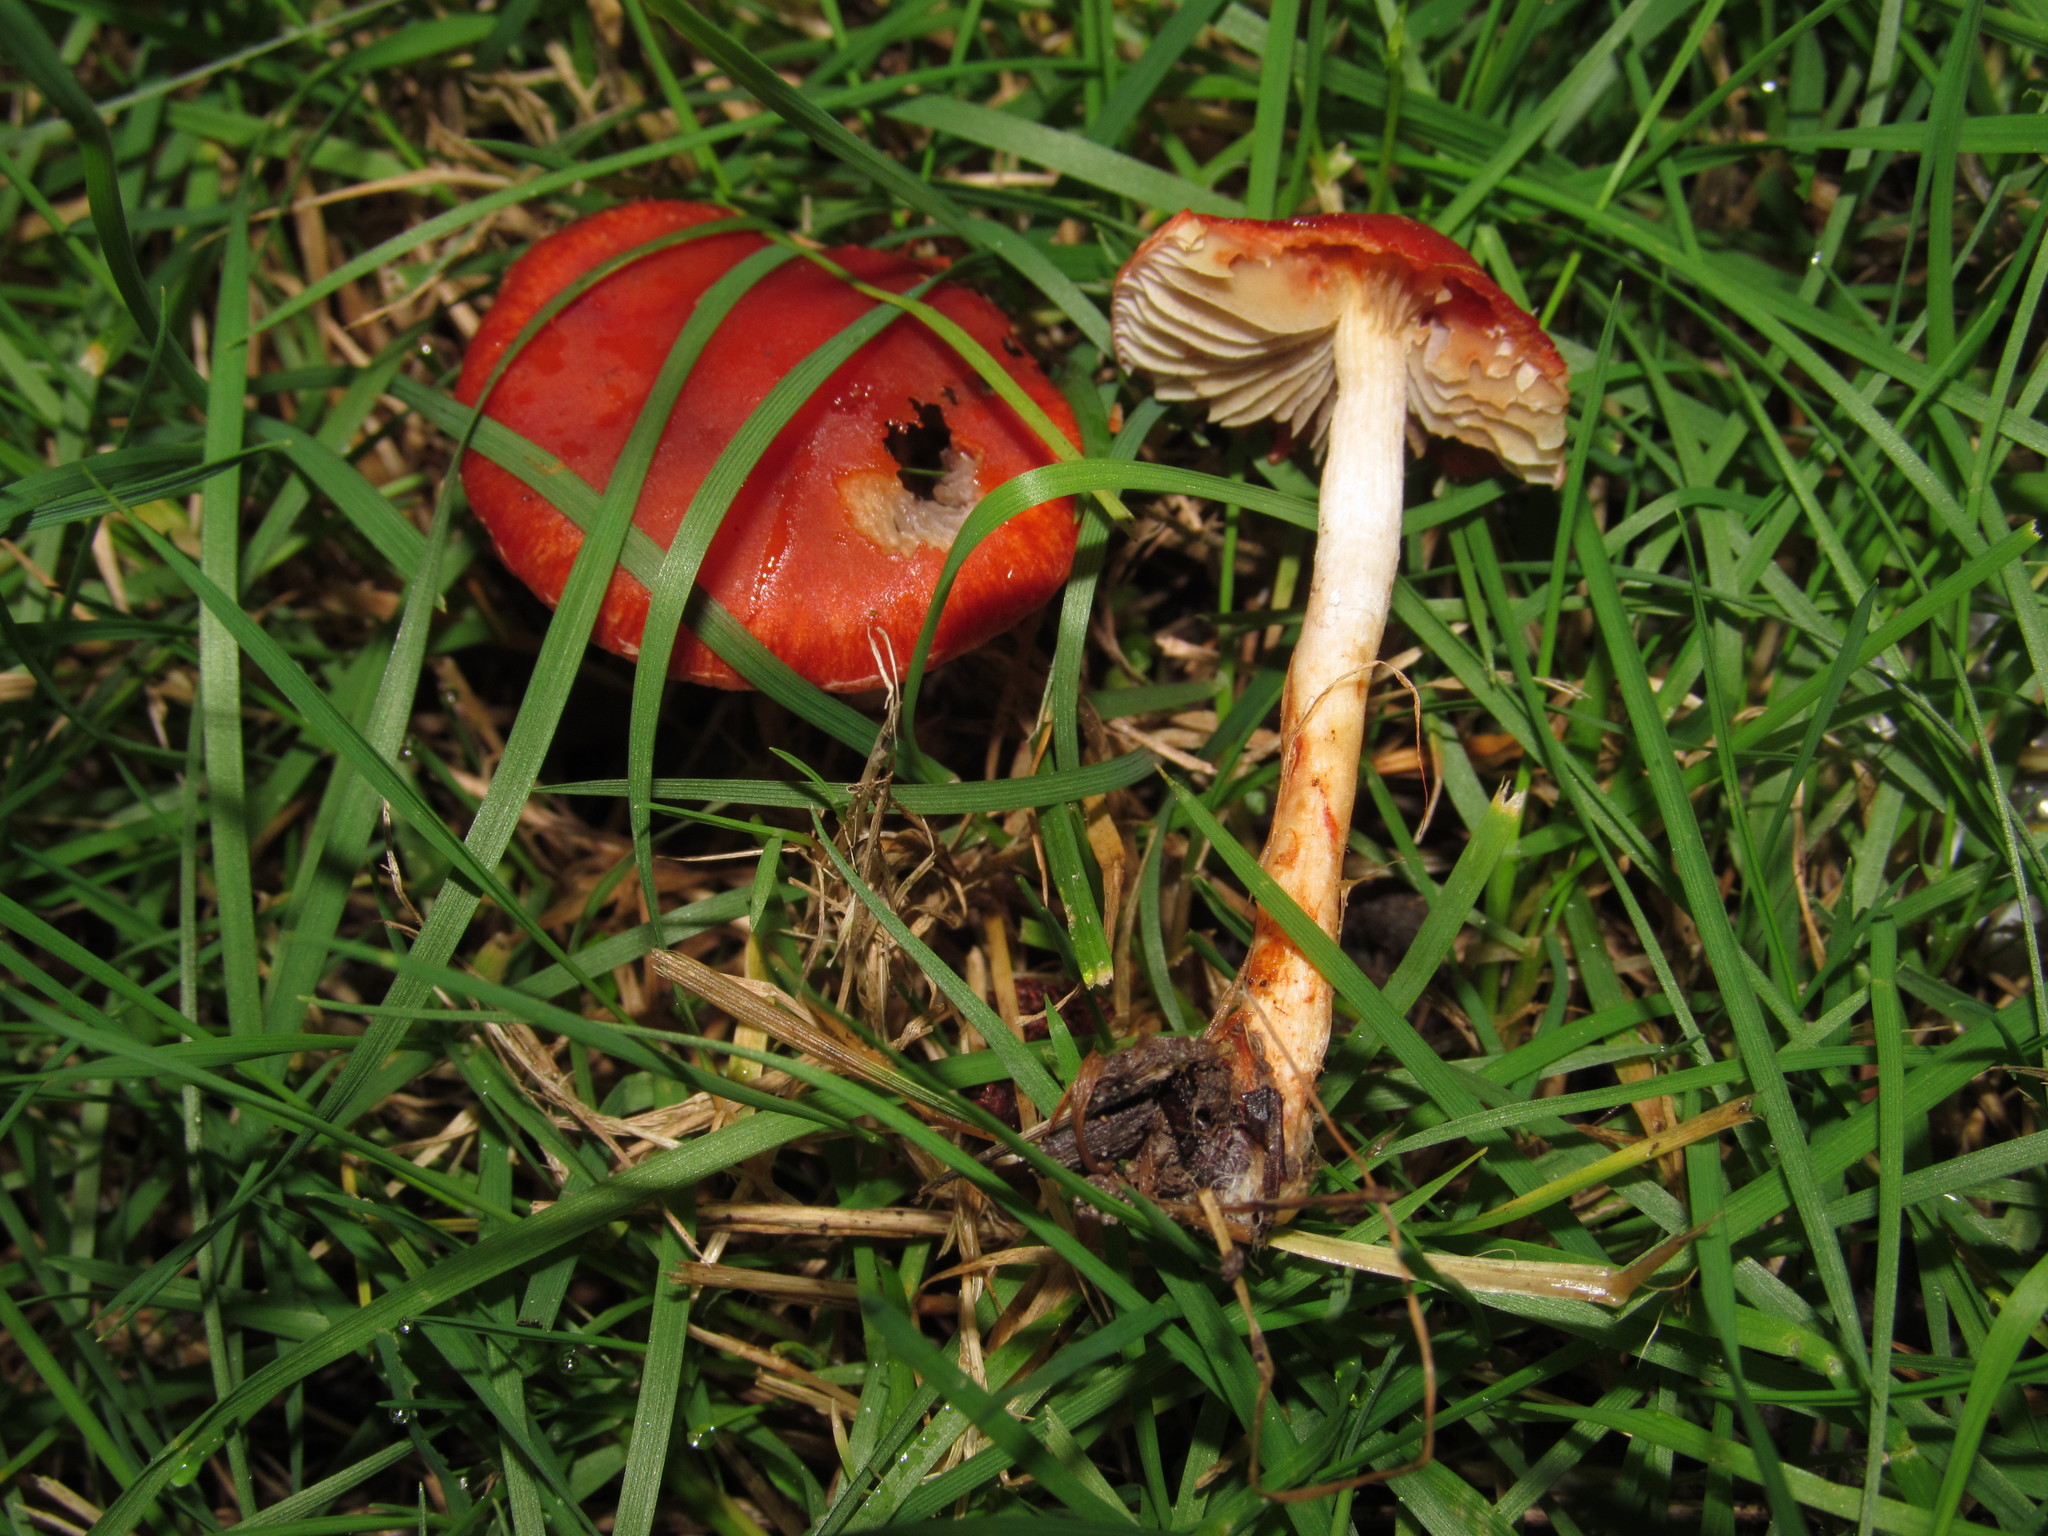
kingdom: Fungi
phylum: Basidiomycota
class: Agaricomycetes
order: Agaricales
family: Strophariaceae
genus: Leratiomyces
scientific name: Leratiomyces ceres
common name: Redlead roundhead
